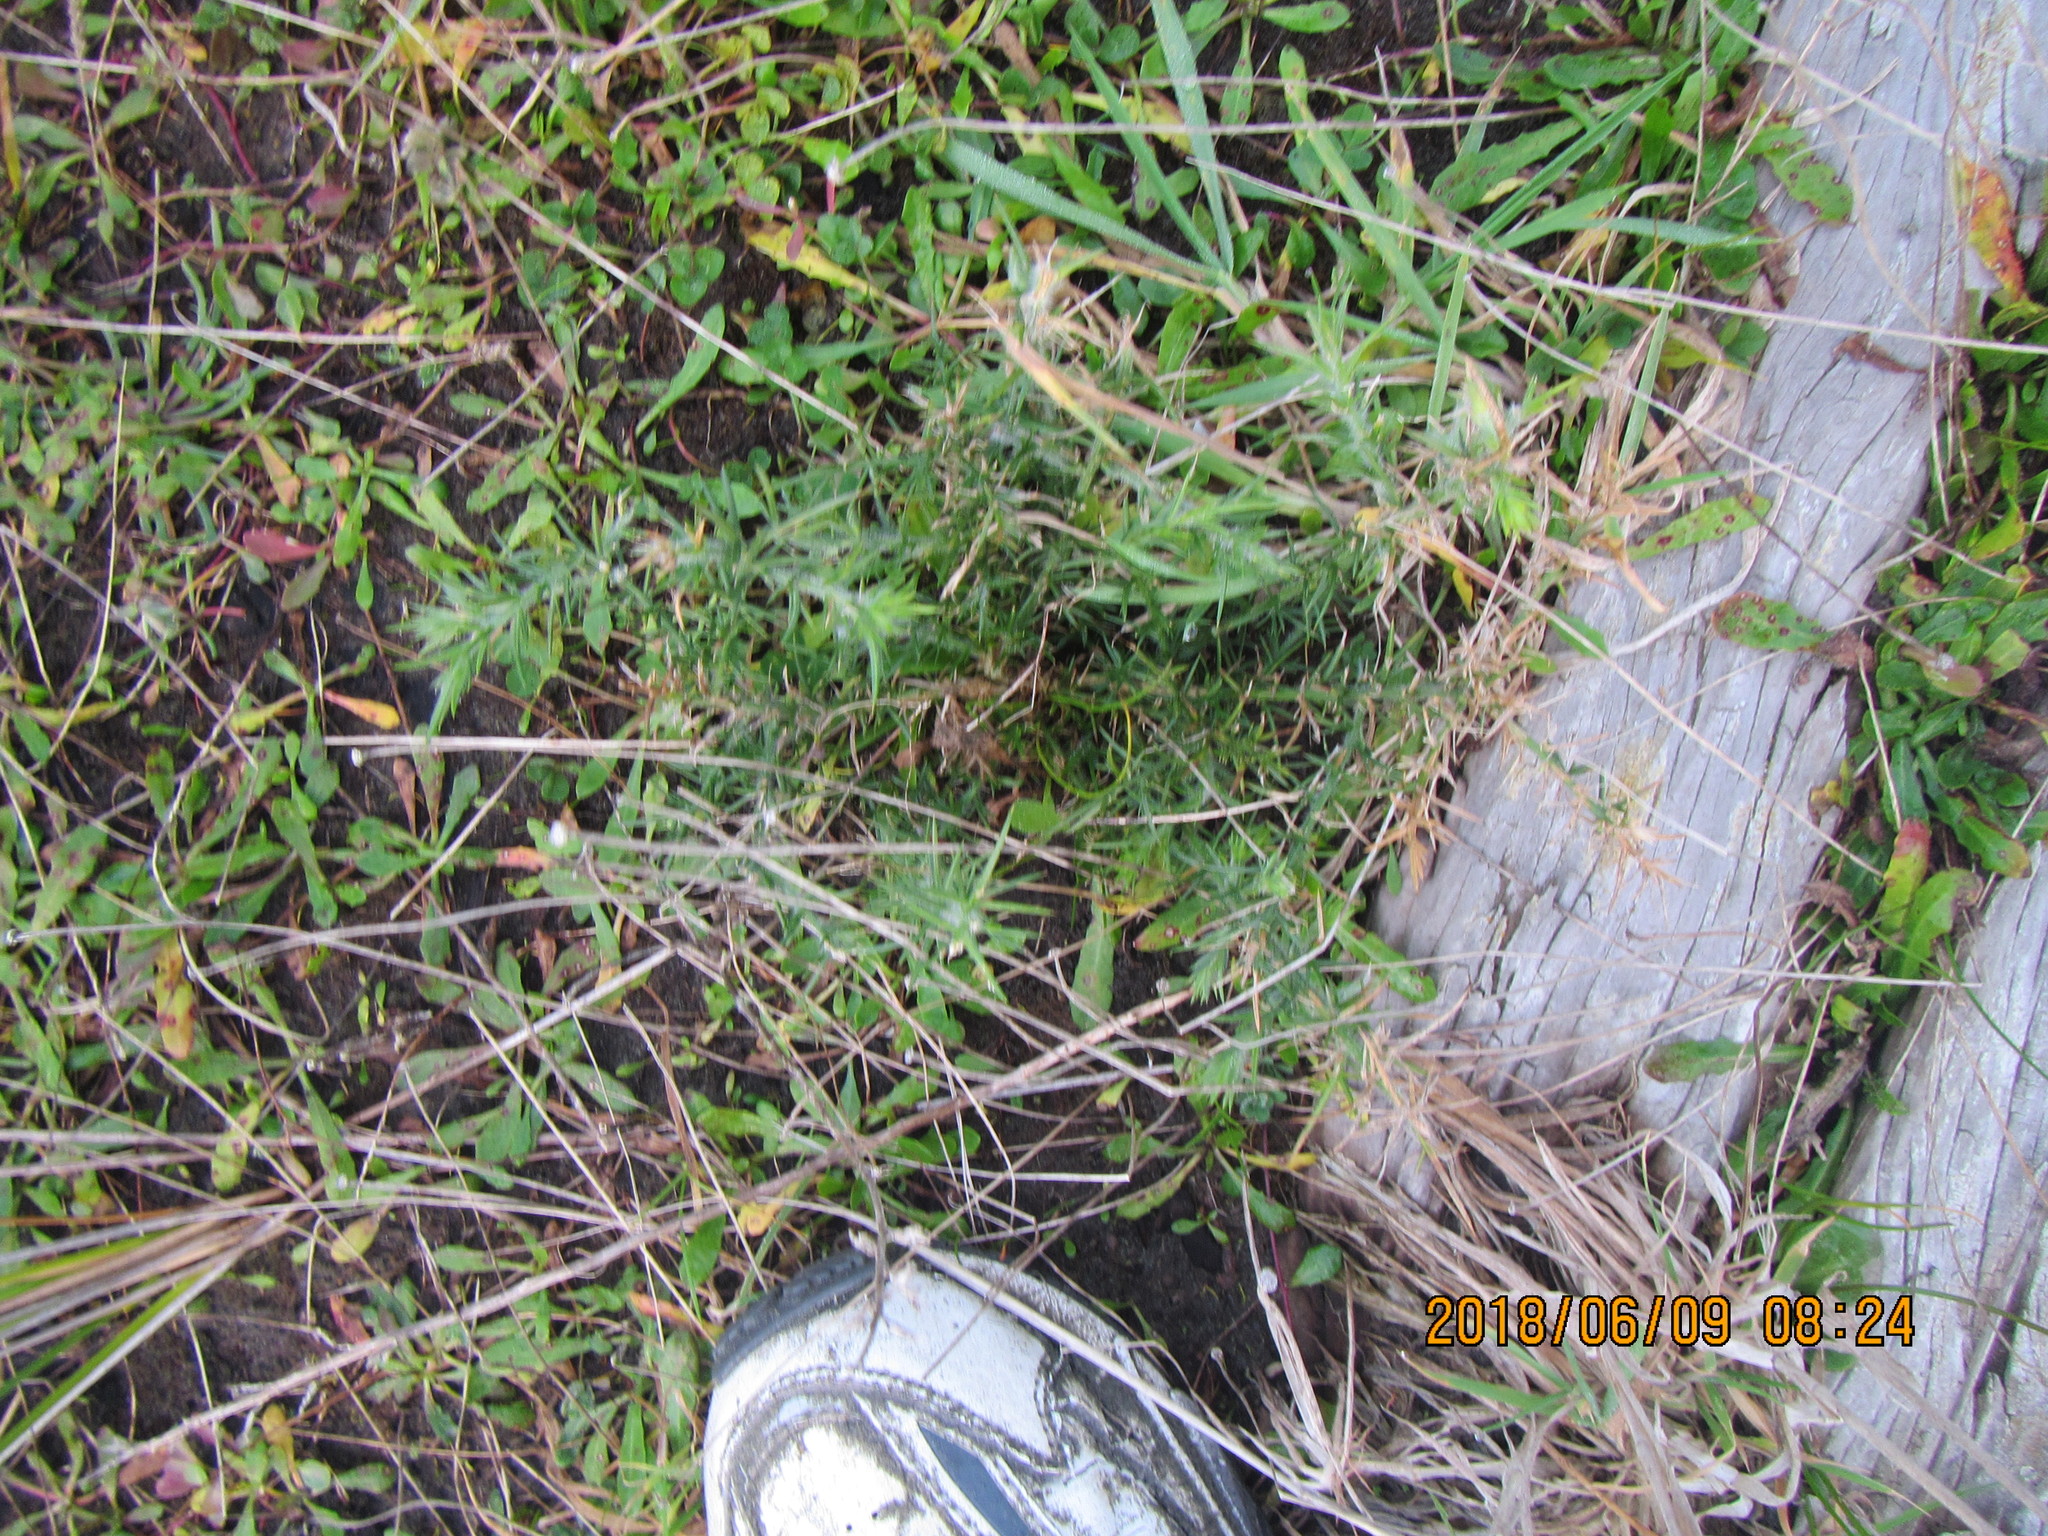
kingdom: Plantae
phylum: Tracheophyta
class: Magnoliopsida
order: Fabales
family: Fabaceae
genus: Ulex
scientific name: Ulex europaeus
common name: Common gorse
